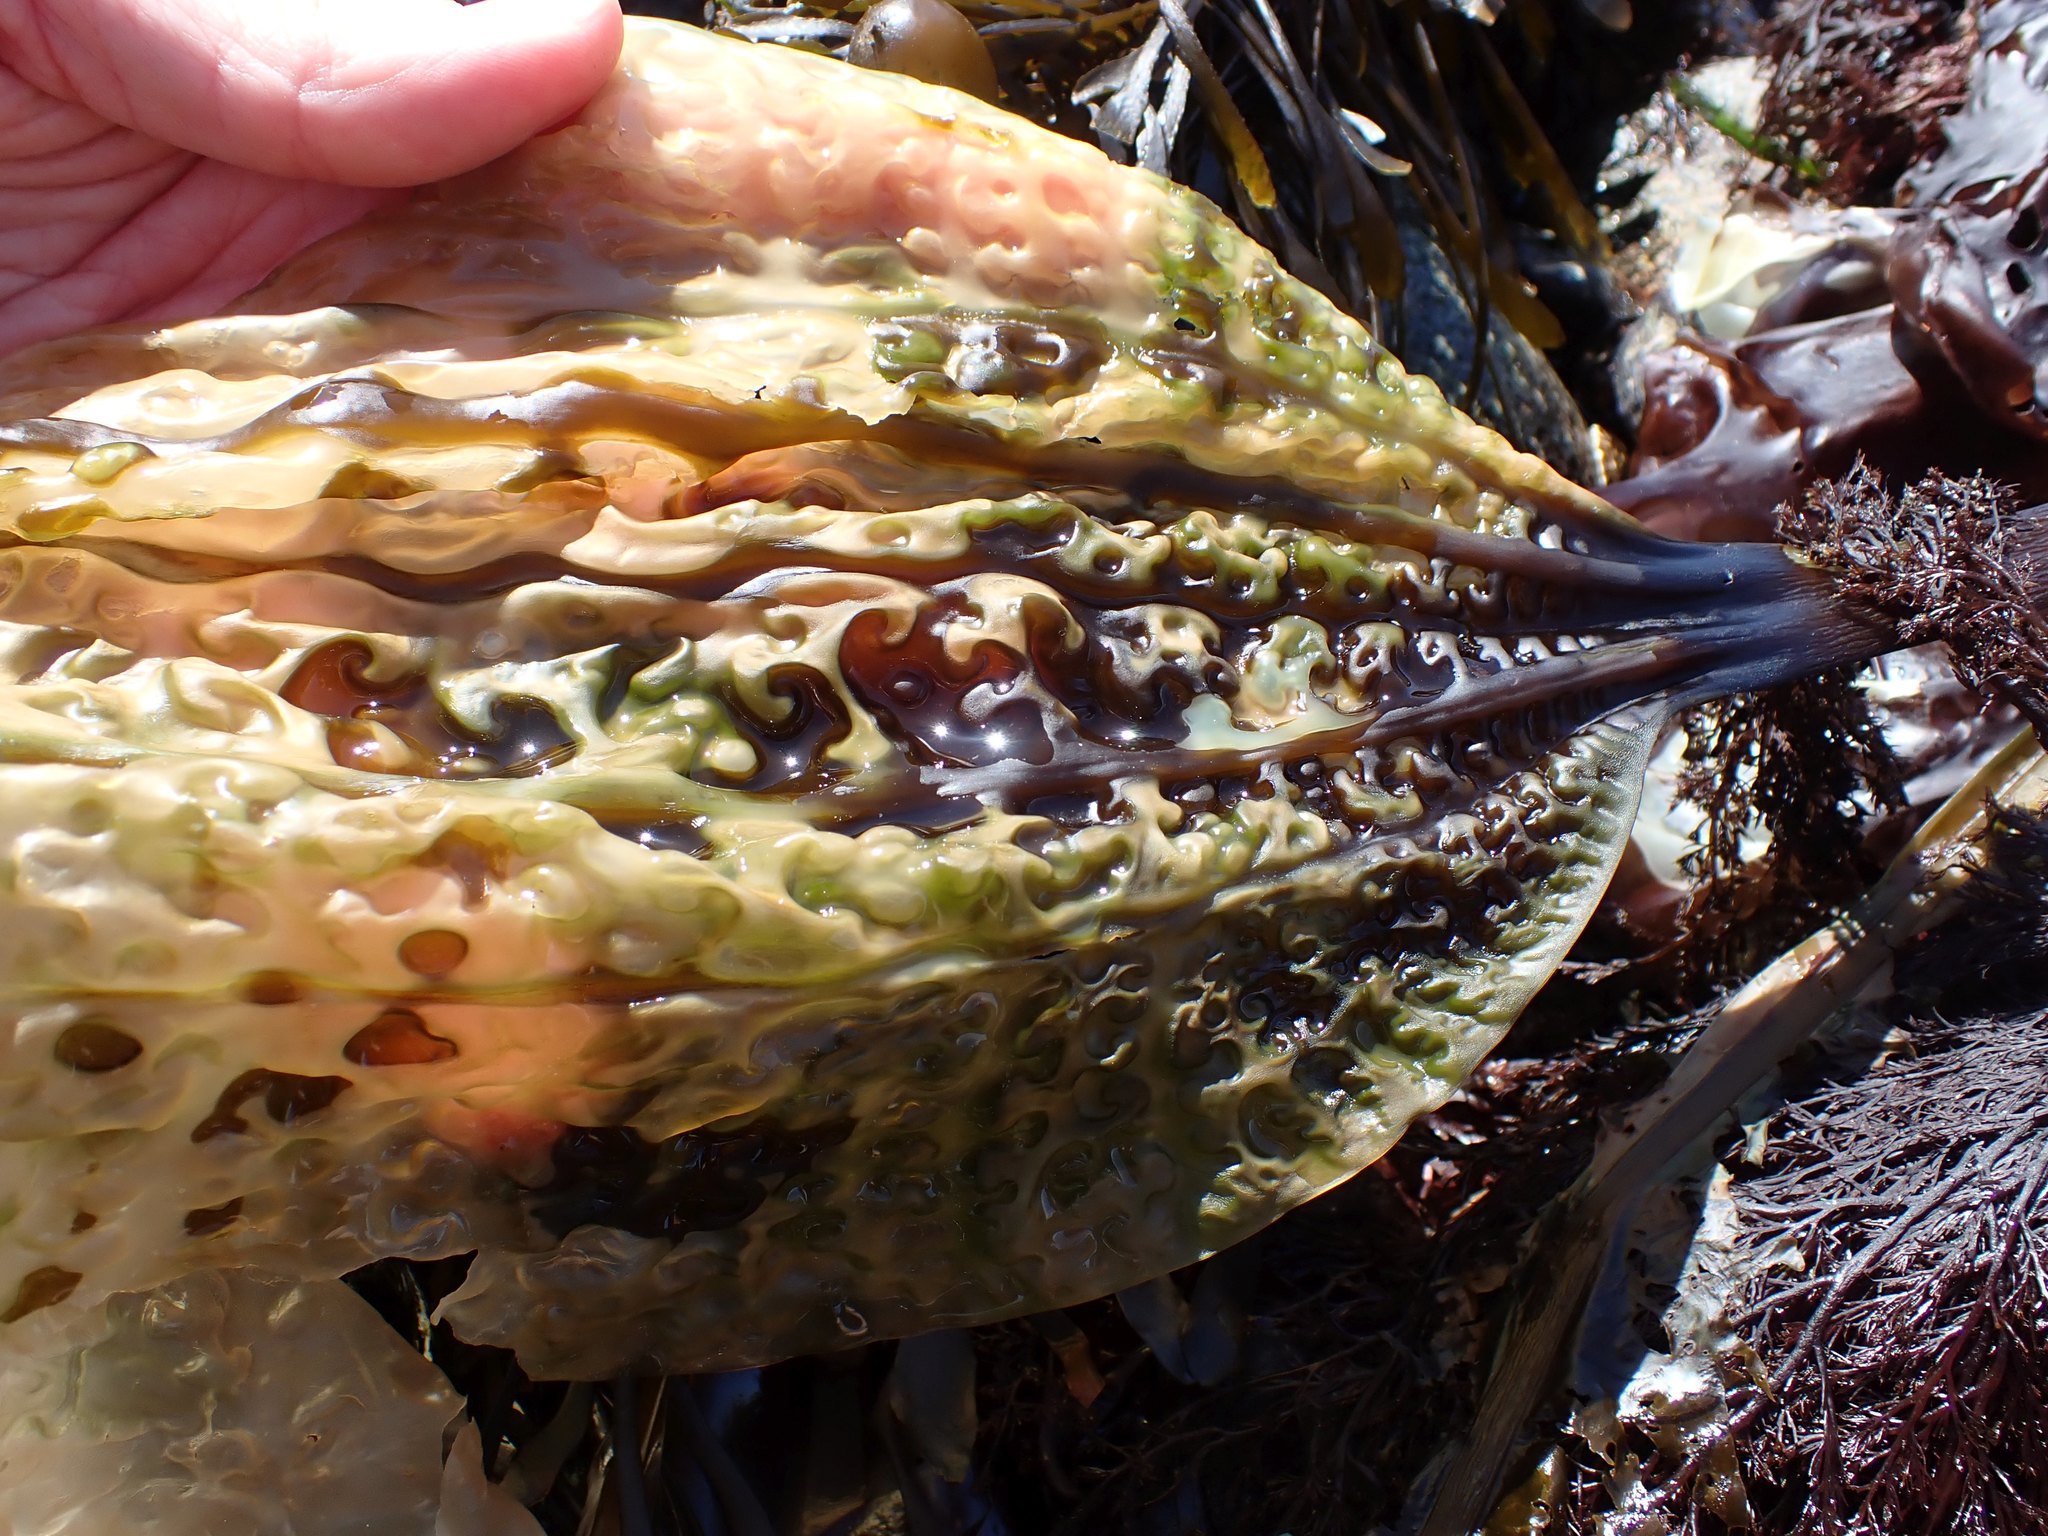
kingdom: Chromista
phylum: Ochrophyta
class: Phaeophyceae
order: Laminariales
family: Costariaceae
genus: Costaria
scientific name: Costaria costata
